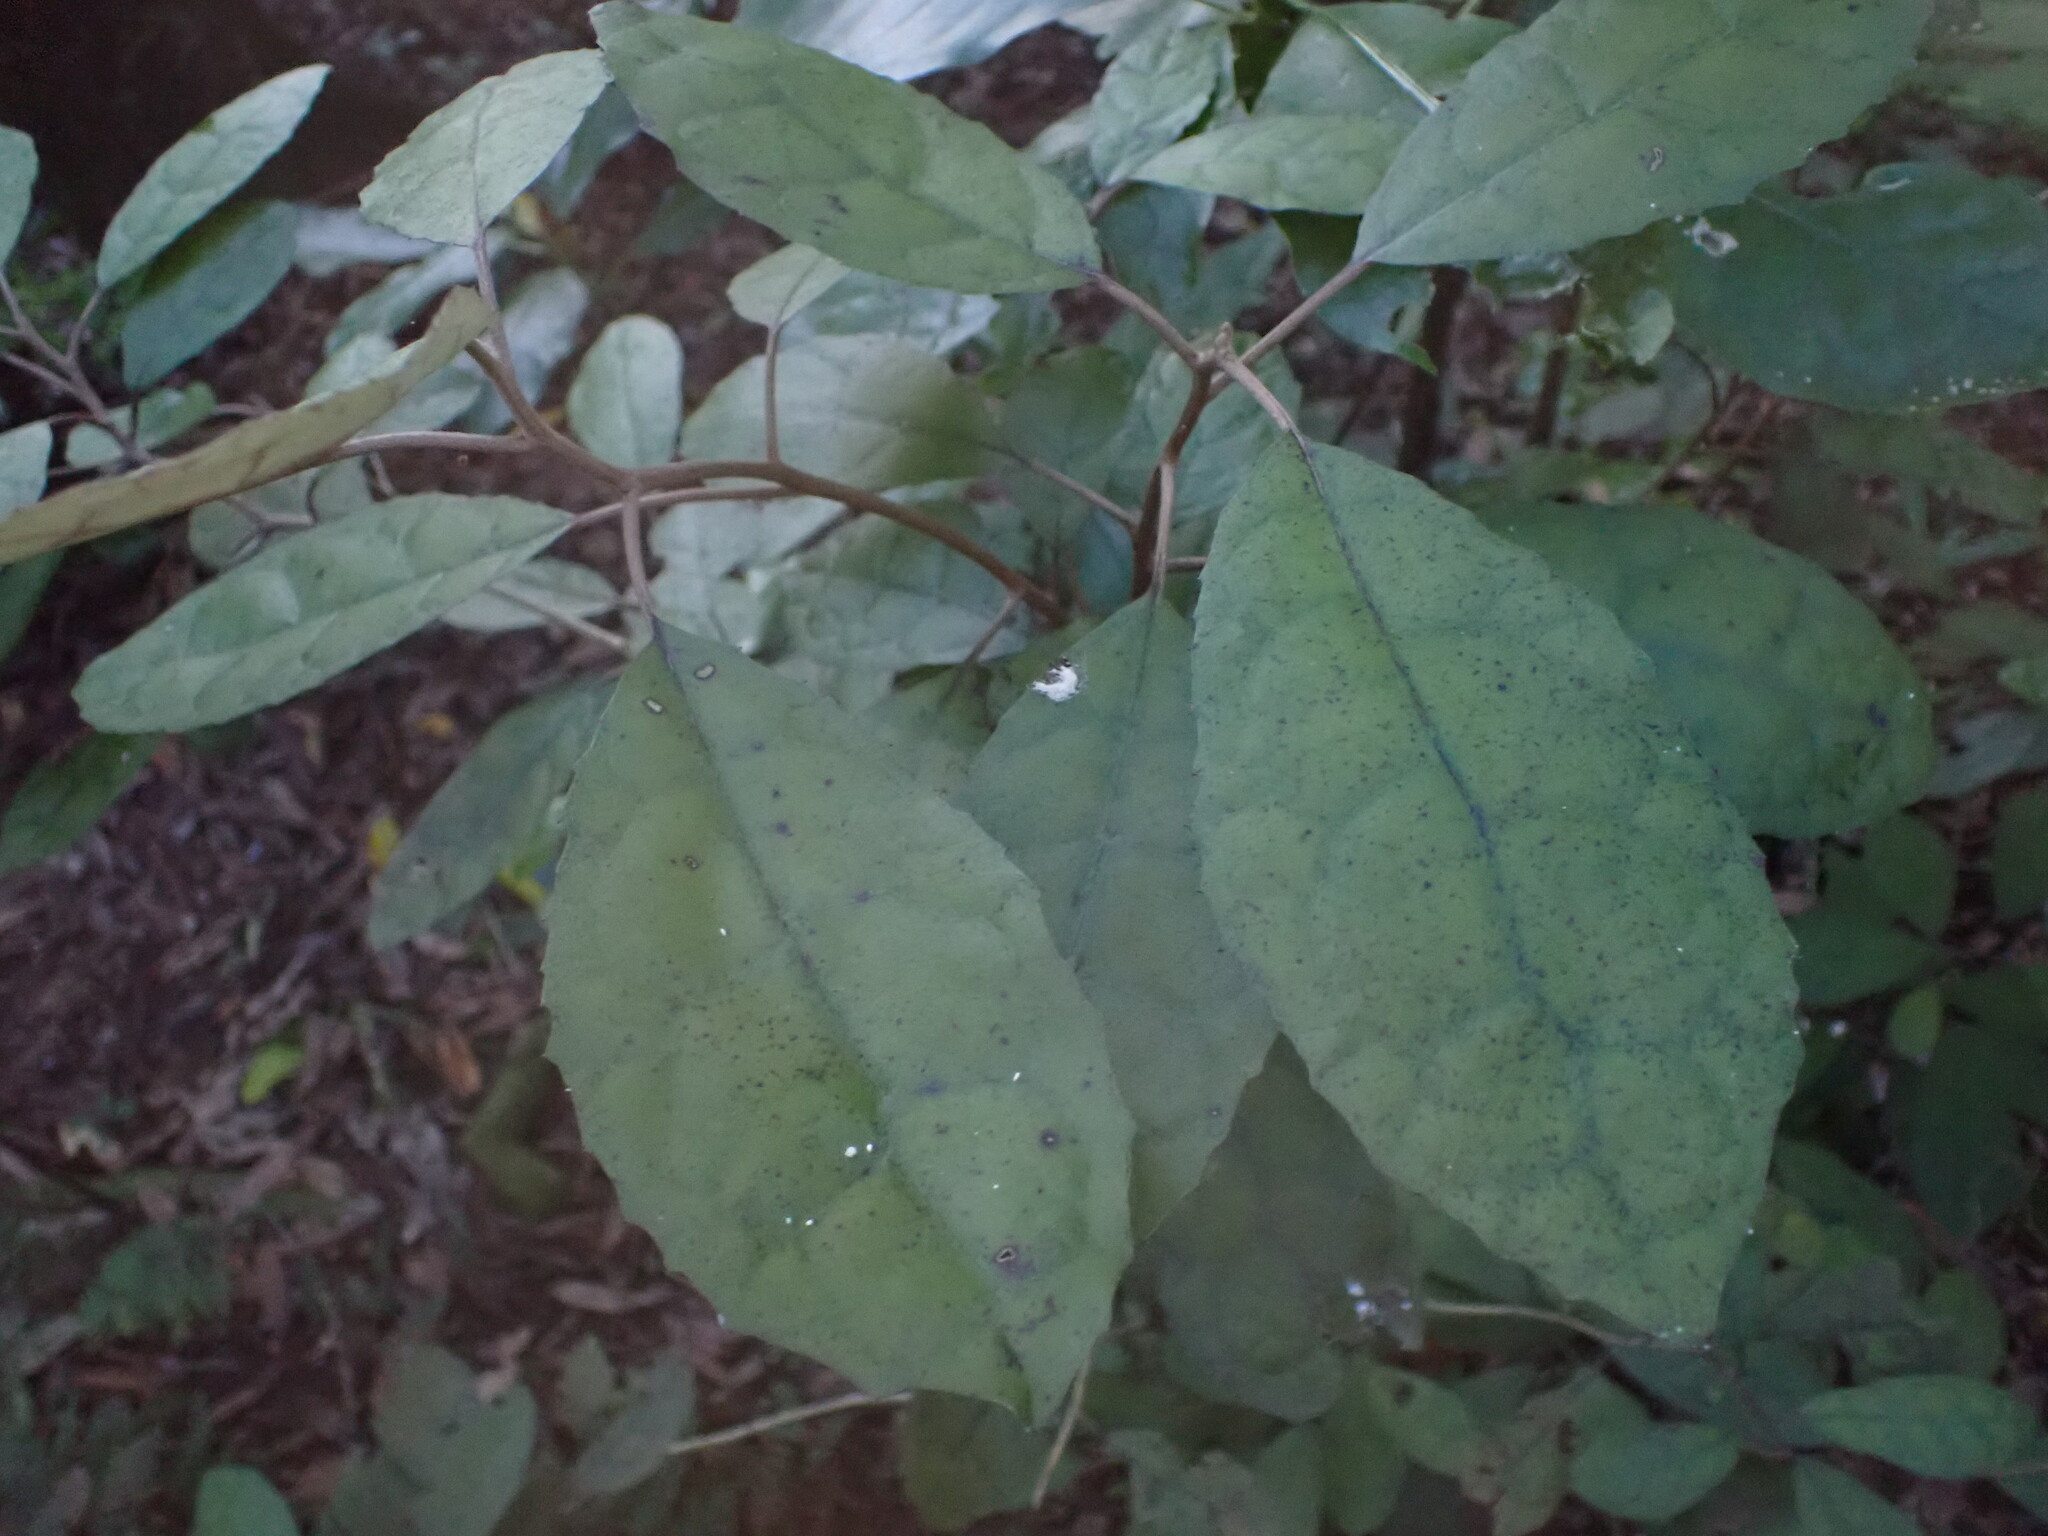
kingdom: Plantae
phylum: Tracheophyta
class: Magnoliopsida
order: Asterales
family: Asteraceae
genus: Olearia
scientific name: Olearia rani
